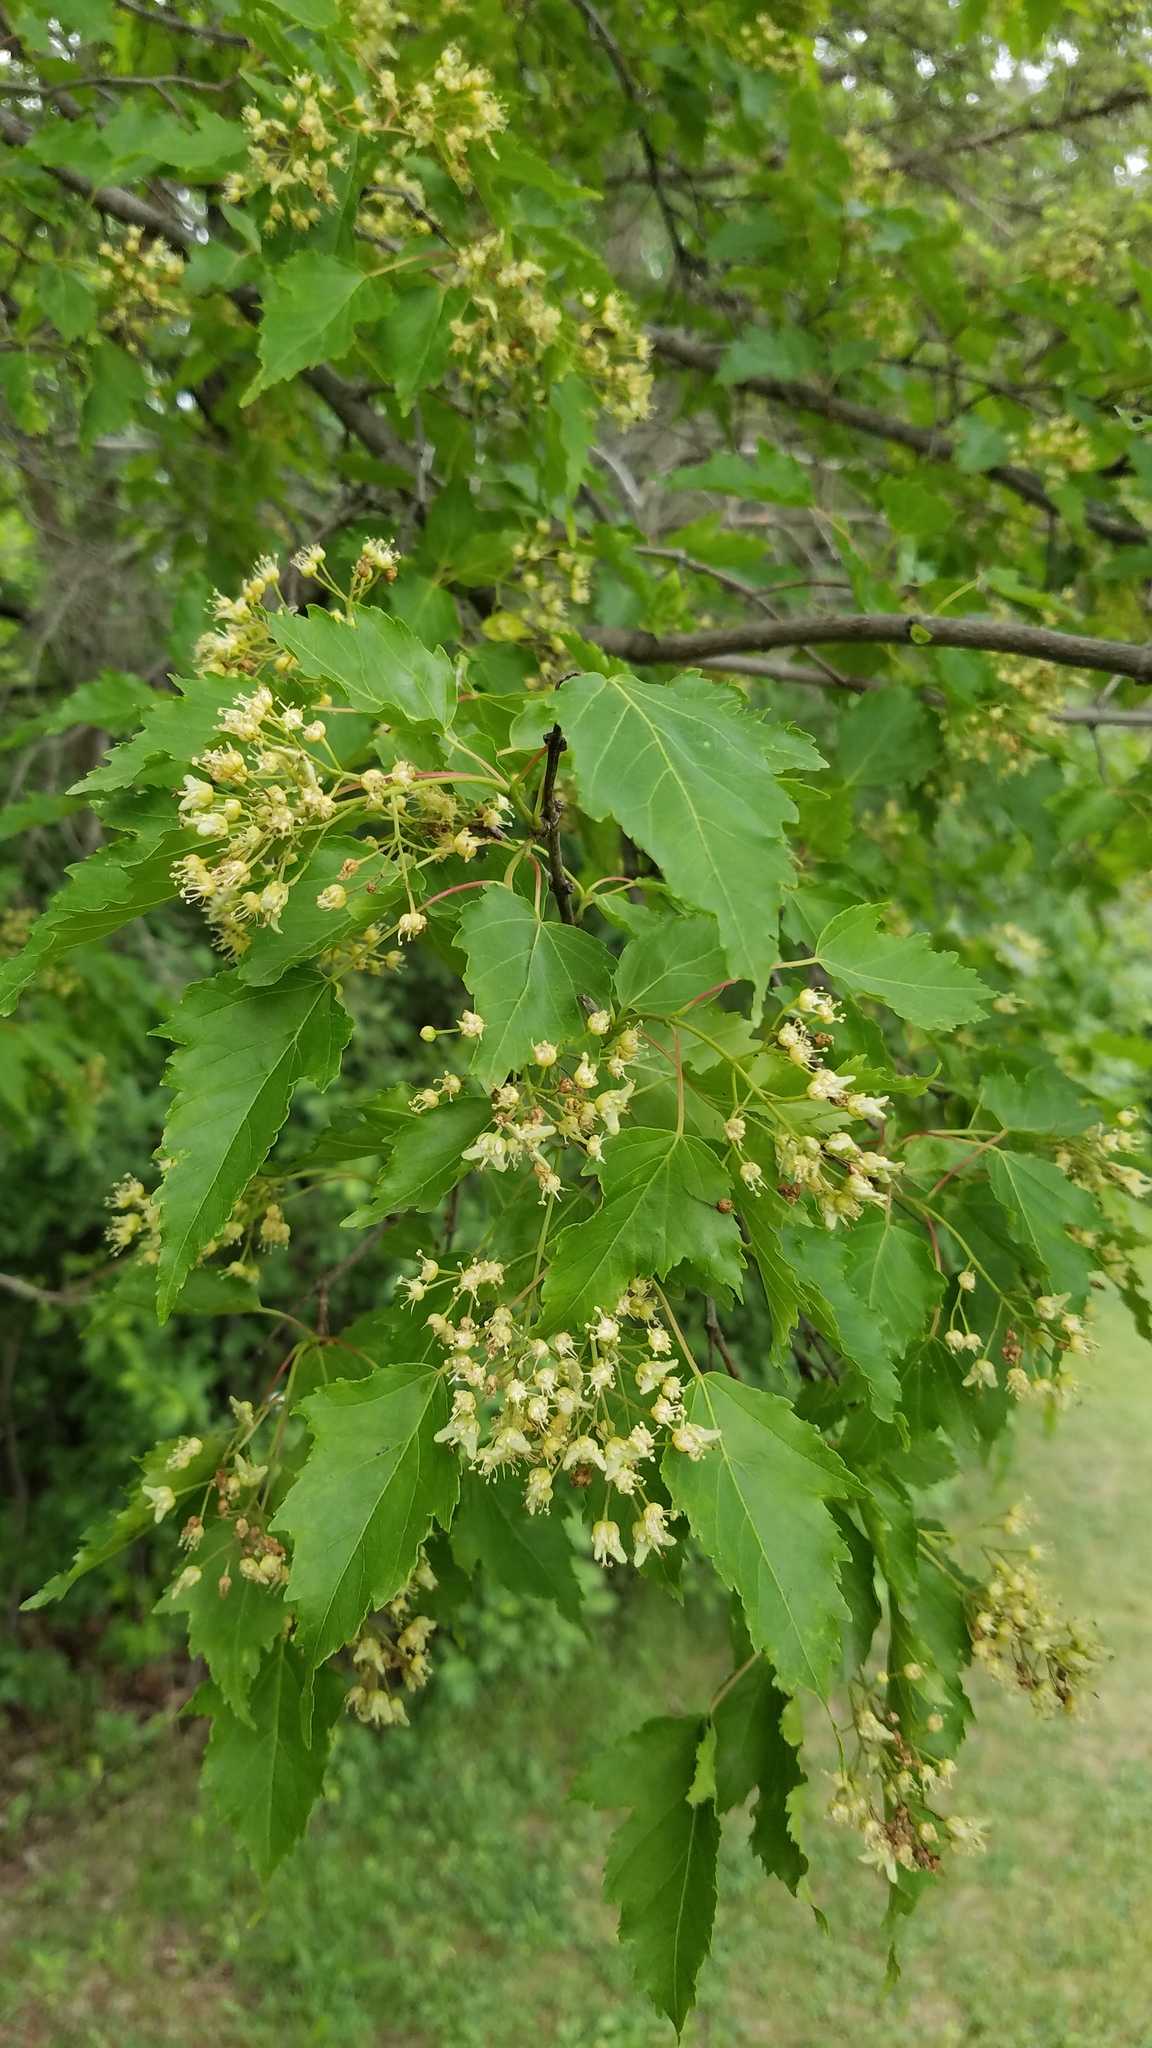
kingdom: Plantae
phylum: Tracheophyta
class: Magnoliopsida
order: Sapindales
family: Sapindaceae
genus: Acer
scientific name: Acer tataricum
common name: Tartar maple
